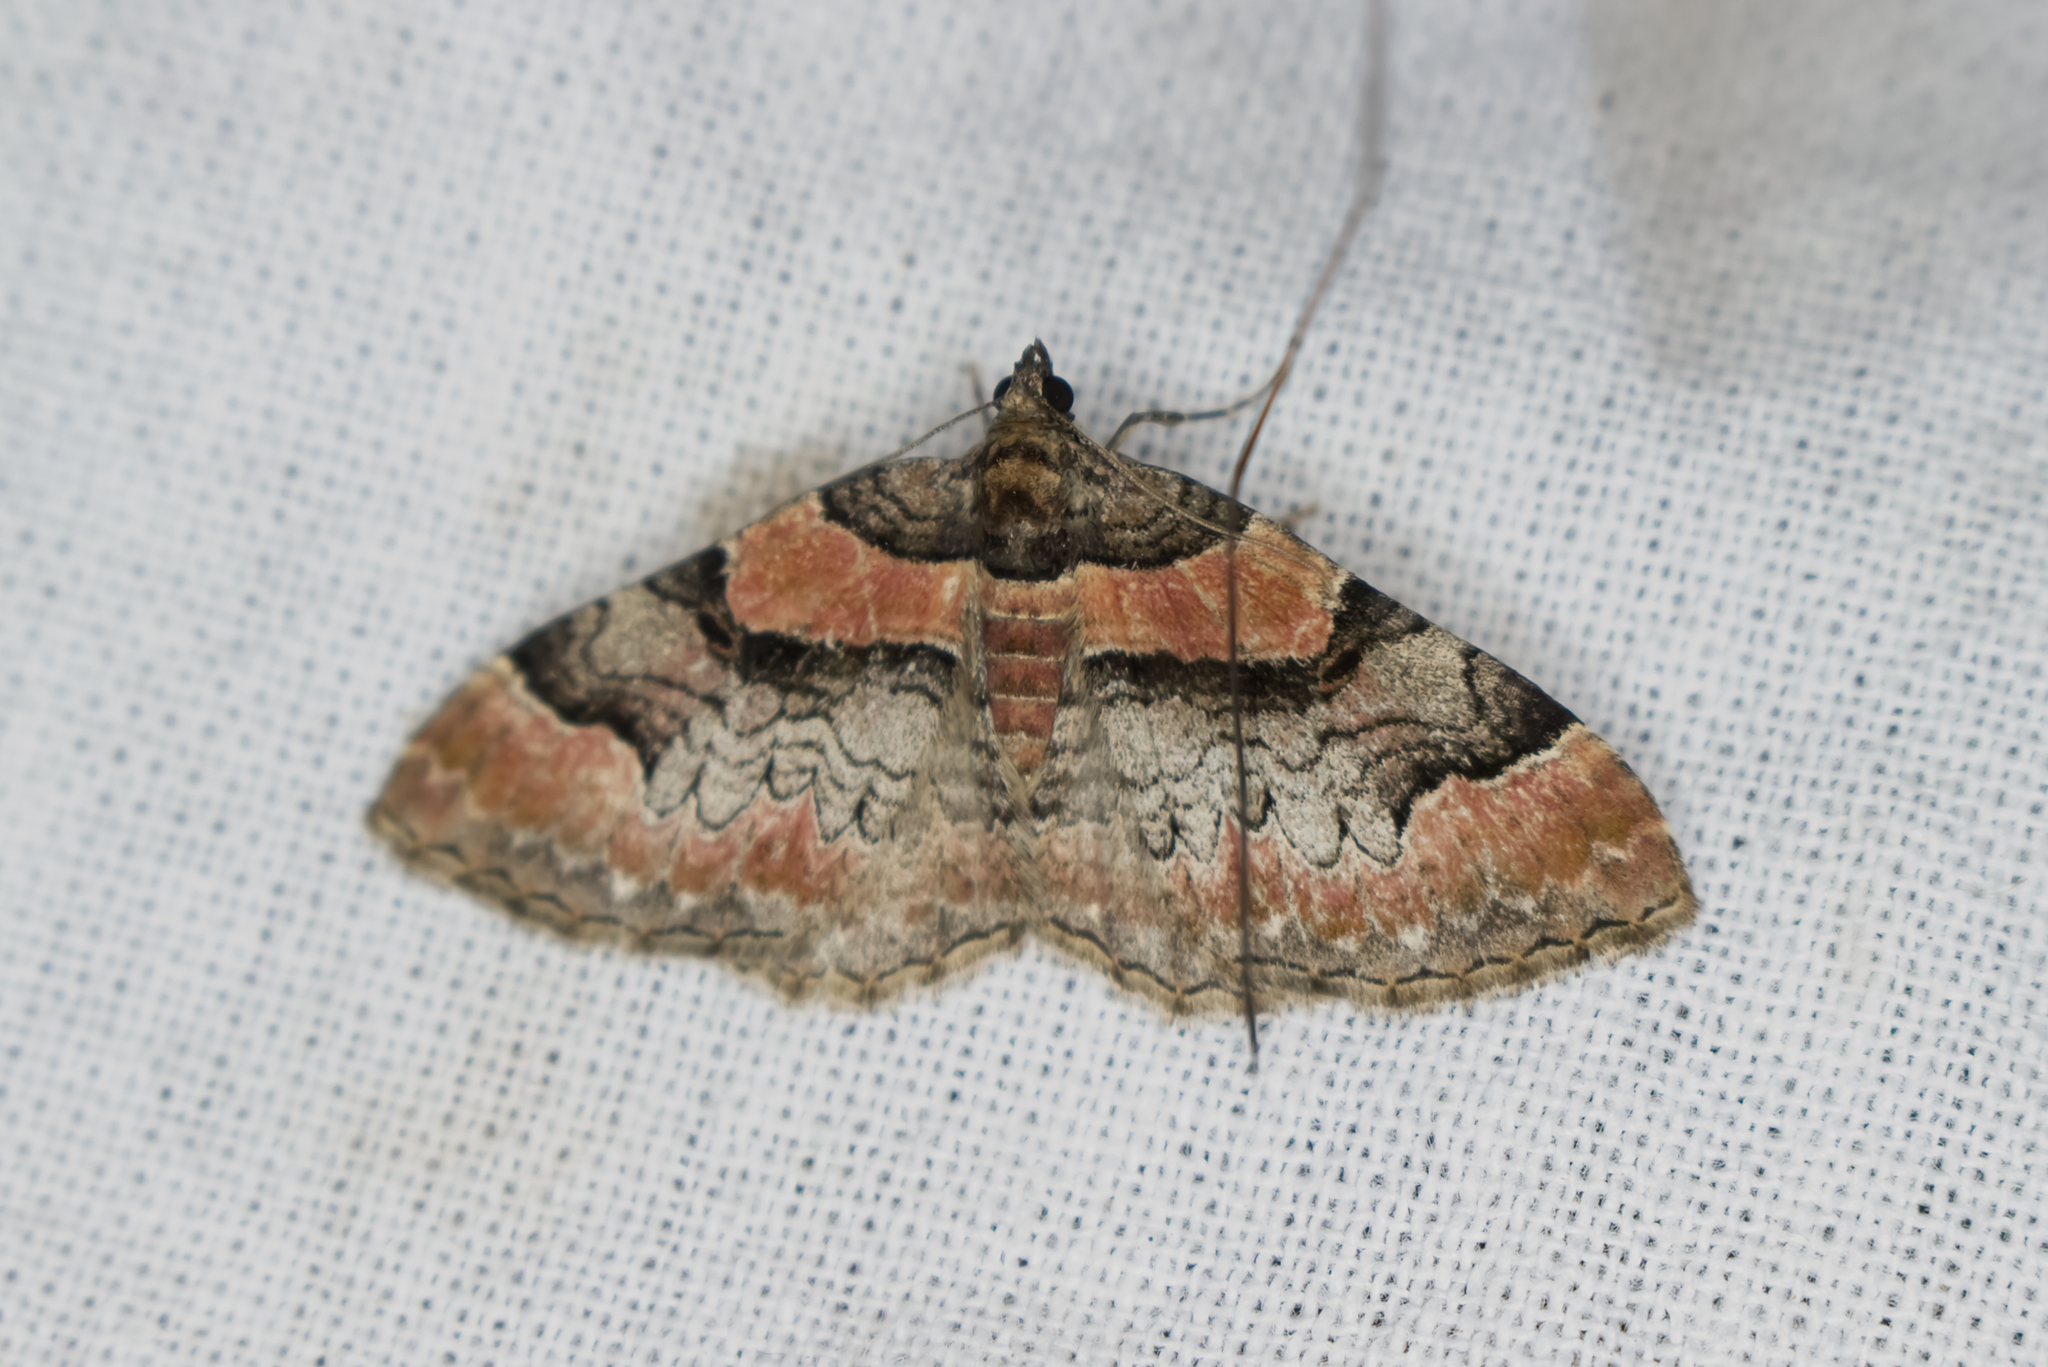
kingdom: Animalia
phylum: Arthropoda
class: Insecta
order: Lepidoptera
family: Geometridae
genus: Catarhoe
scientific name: Catarhoe rubidata
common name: Ruddy carpet
